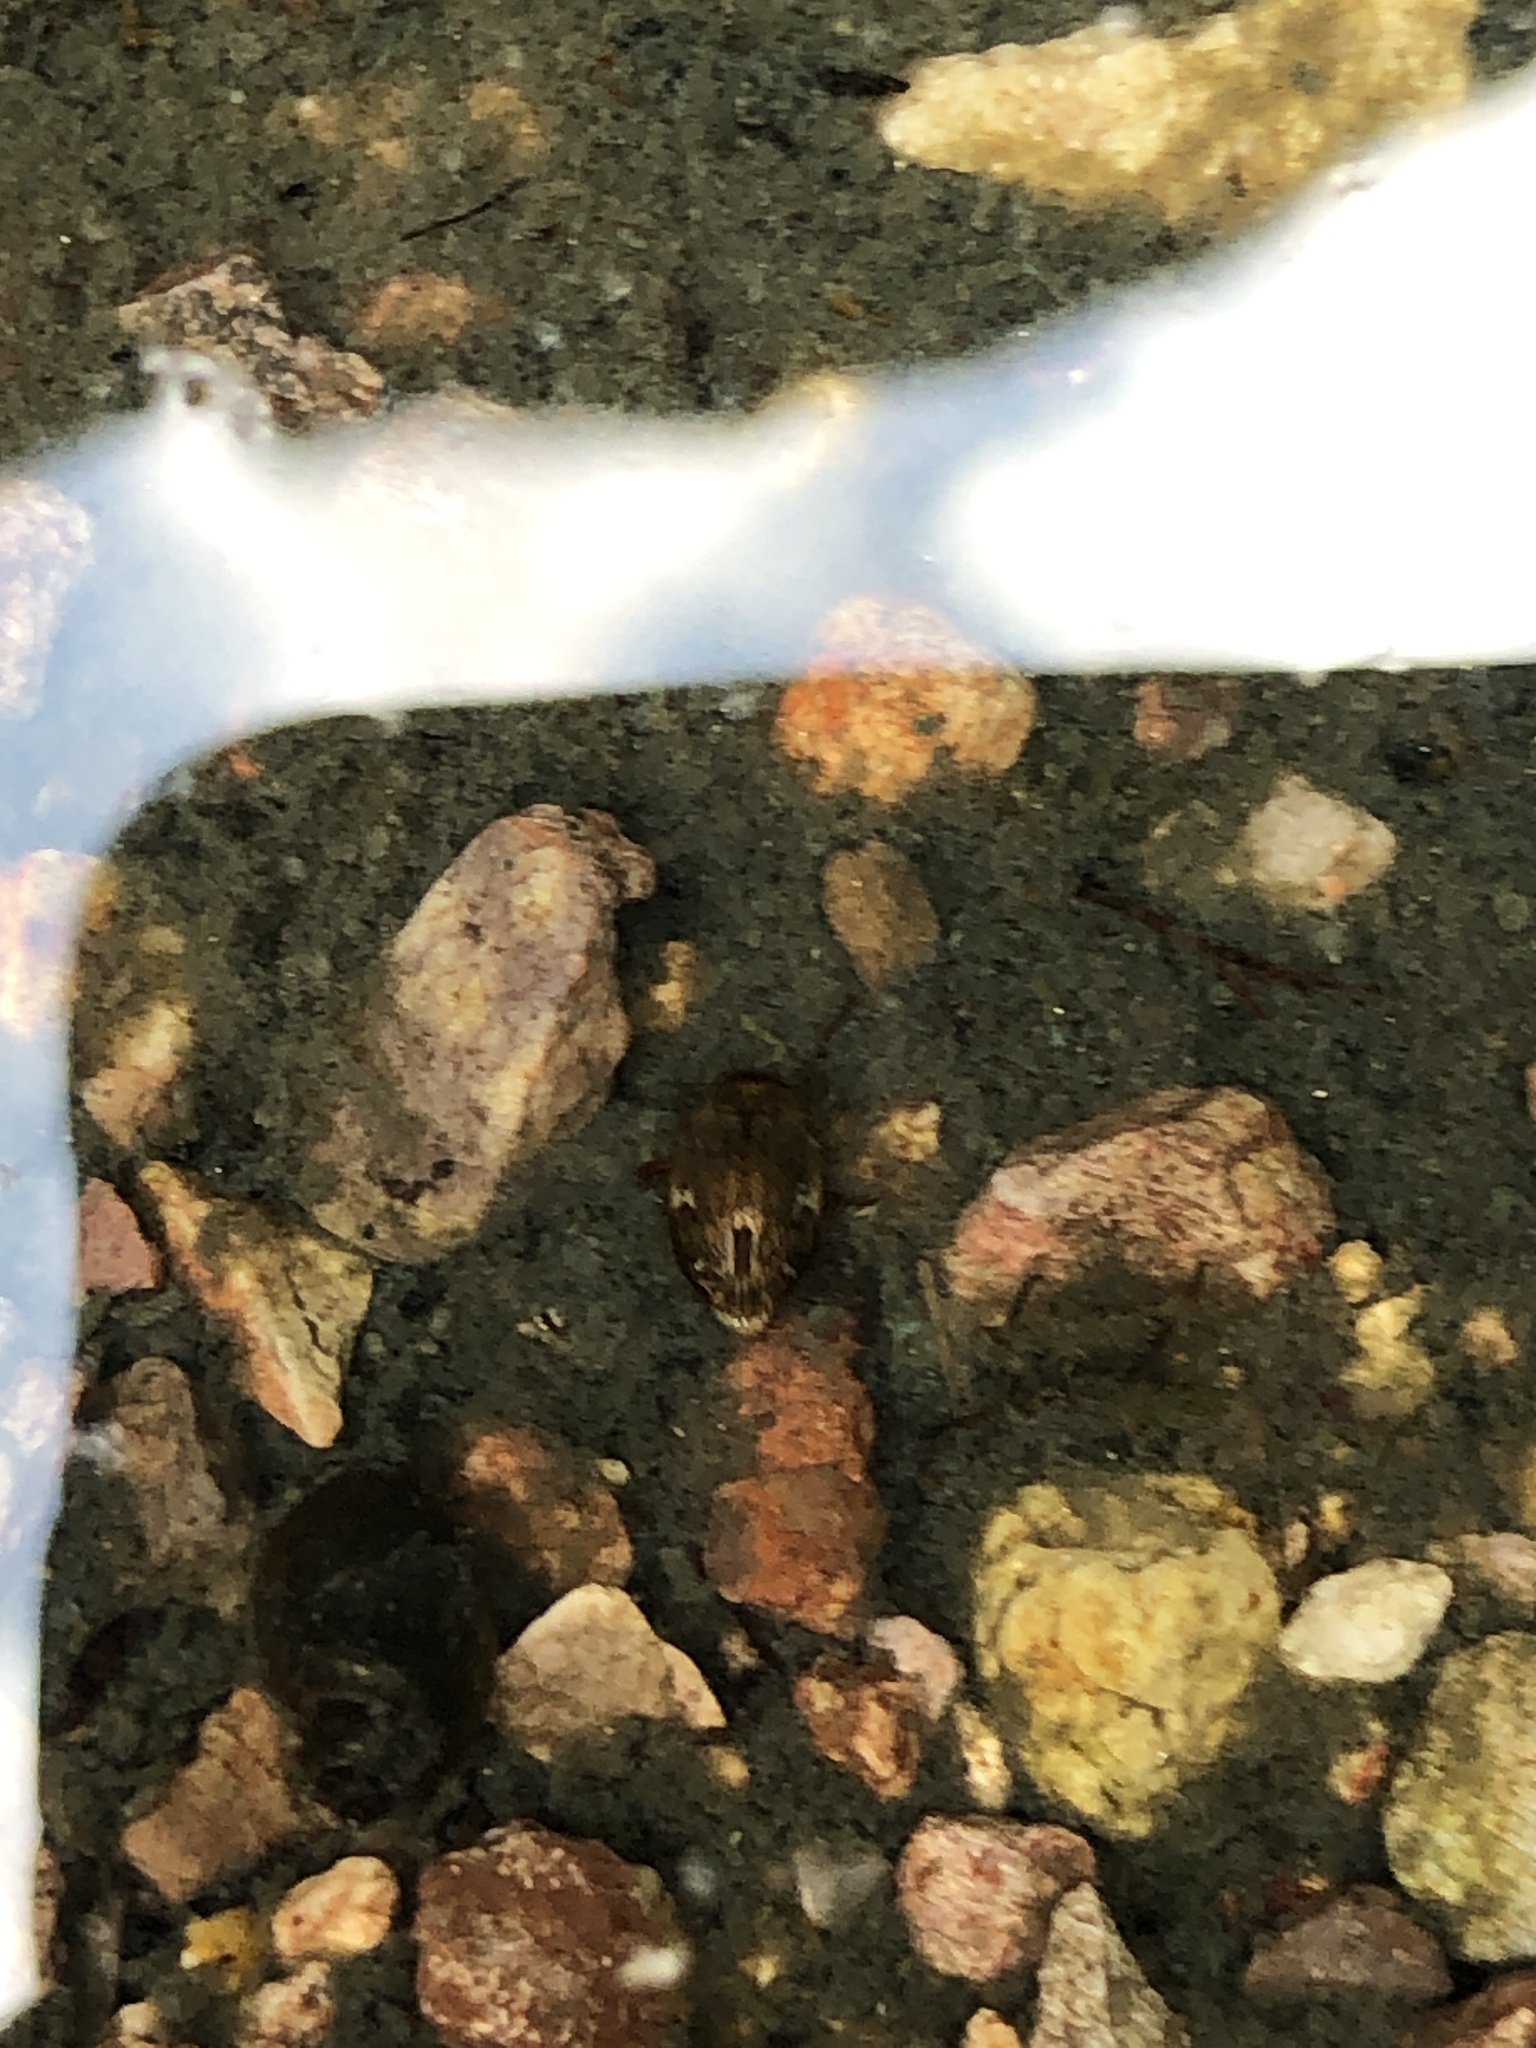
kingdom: Animalia
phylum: Arthropoda
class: Insecta
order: Coleoptera
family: Dytiscidae
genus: Laccophilus
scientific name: Laccophilus maculosus
